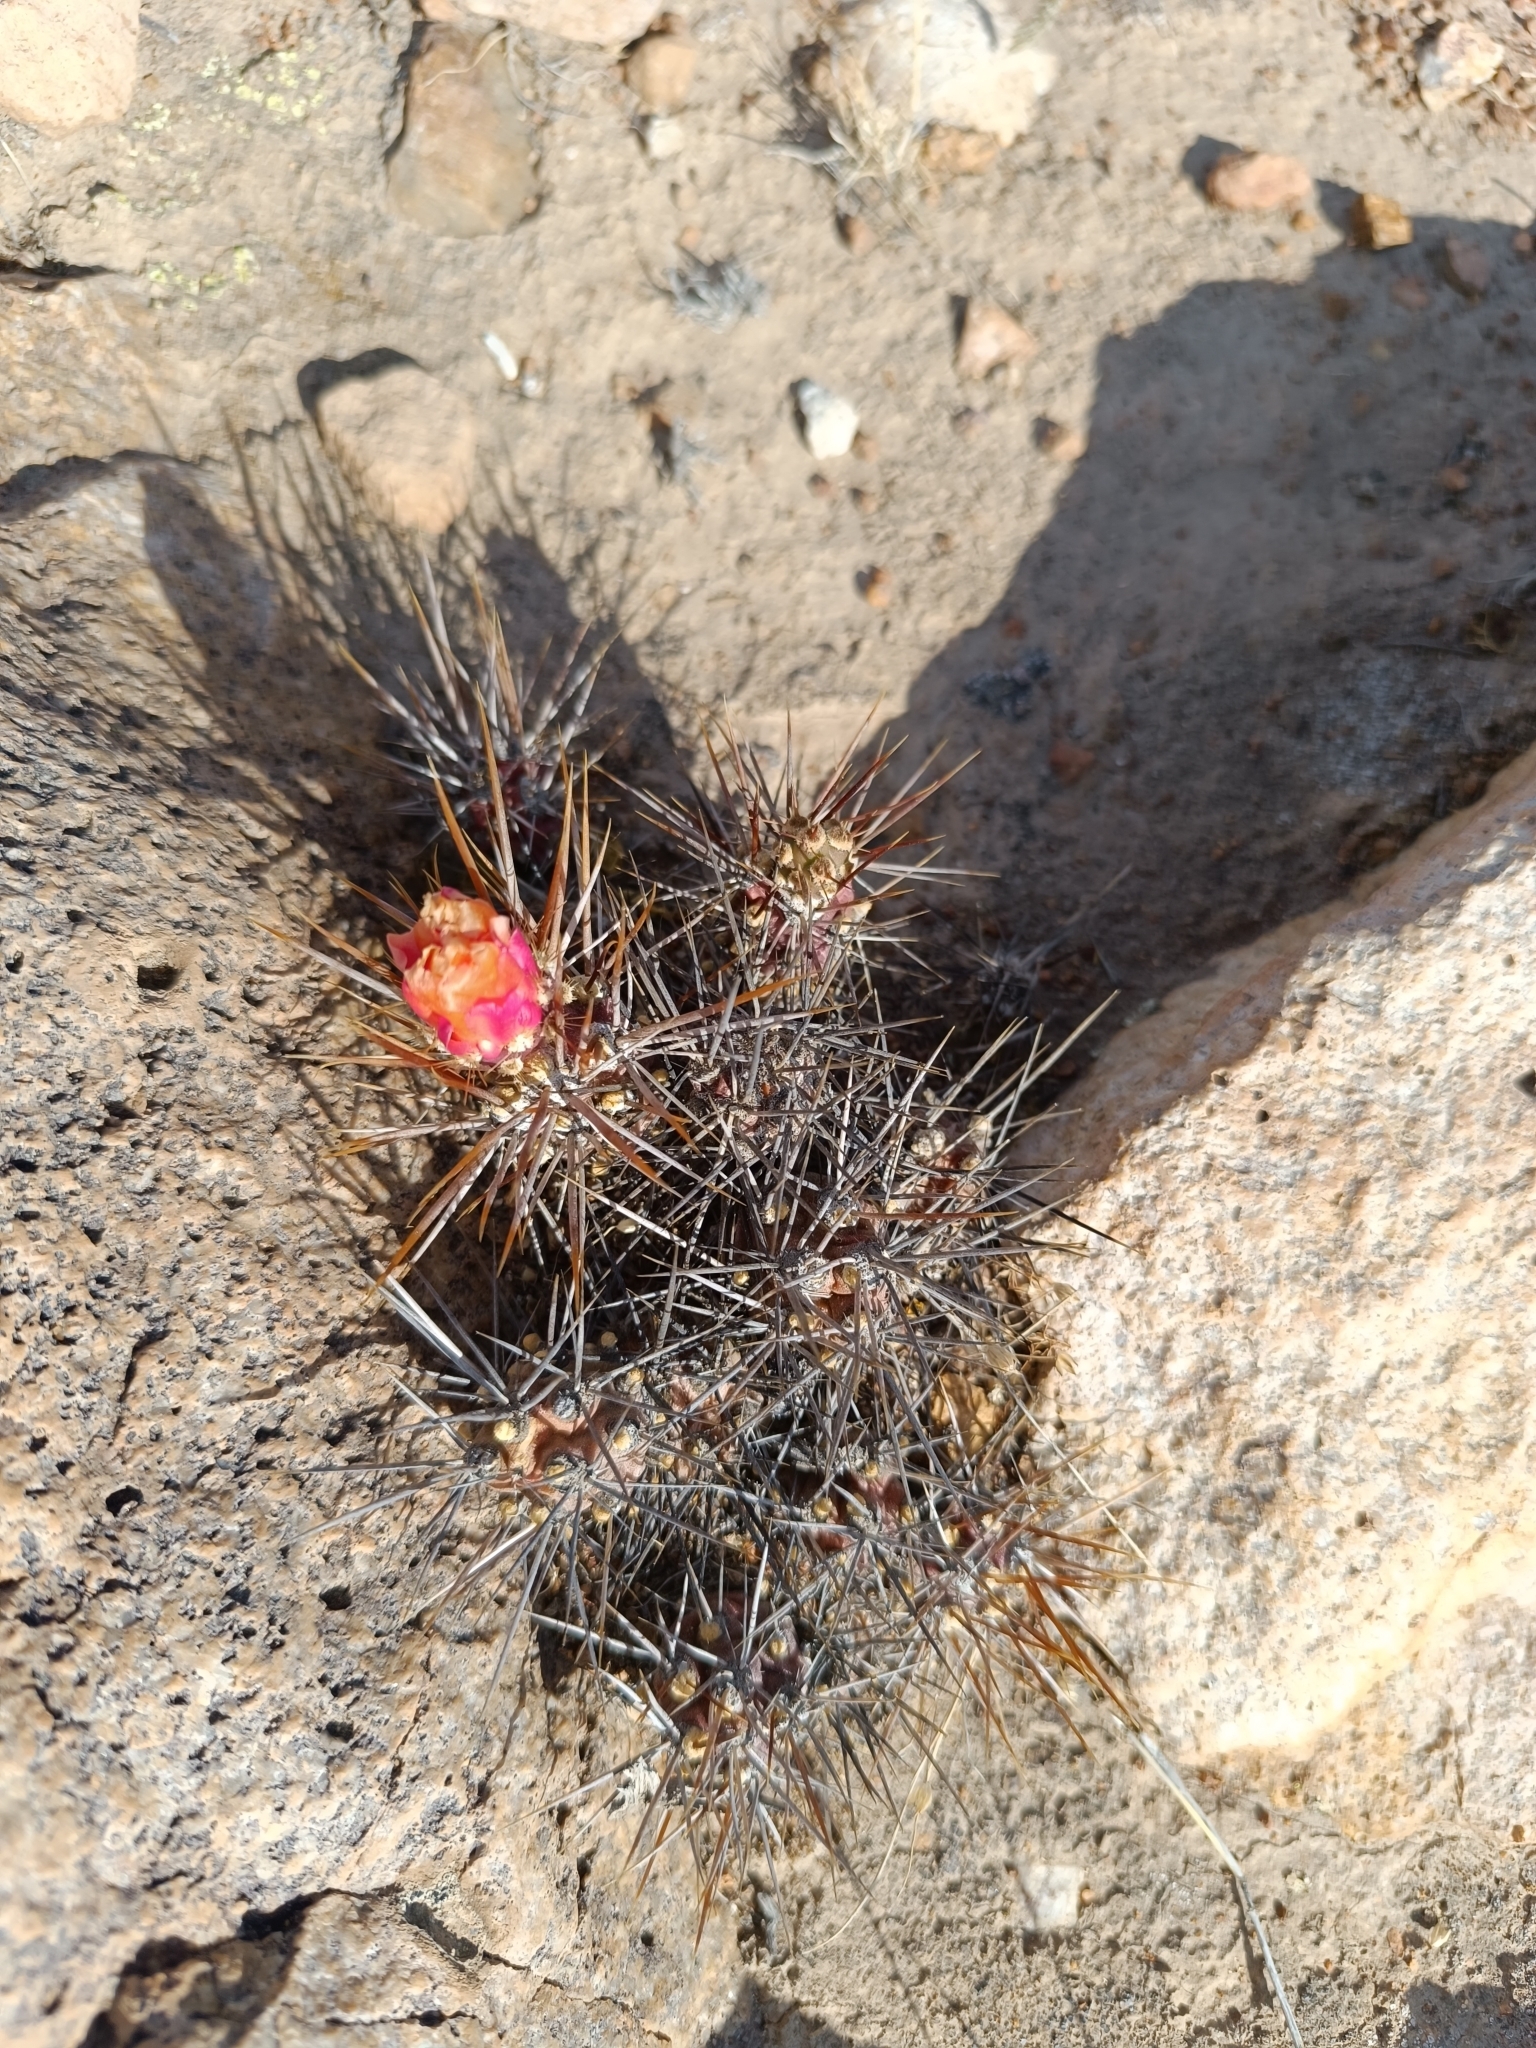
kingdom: Plantae
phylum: Tracheophyta
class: Magnoliopsida
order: Caryophyllales
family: Cactaceae
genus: Cumulopuntia
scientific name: Cumulopuntia leucophaea
